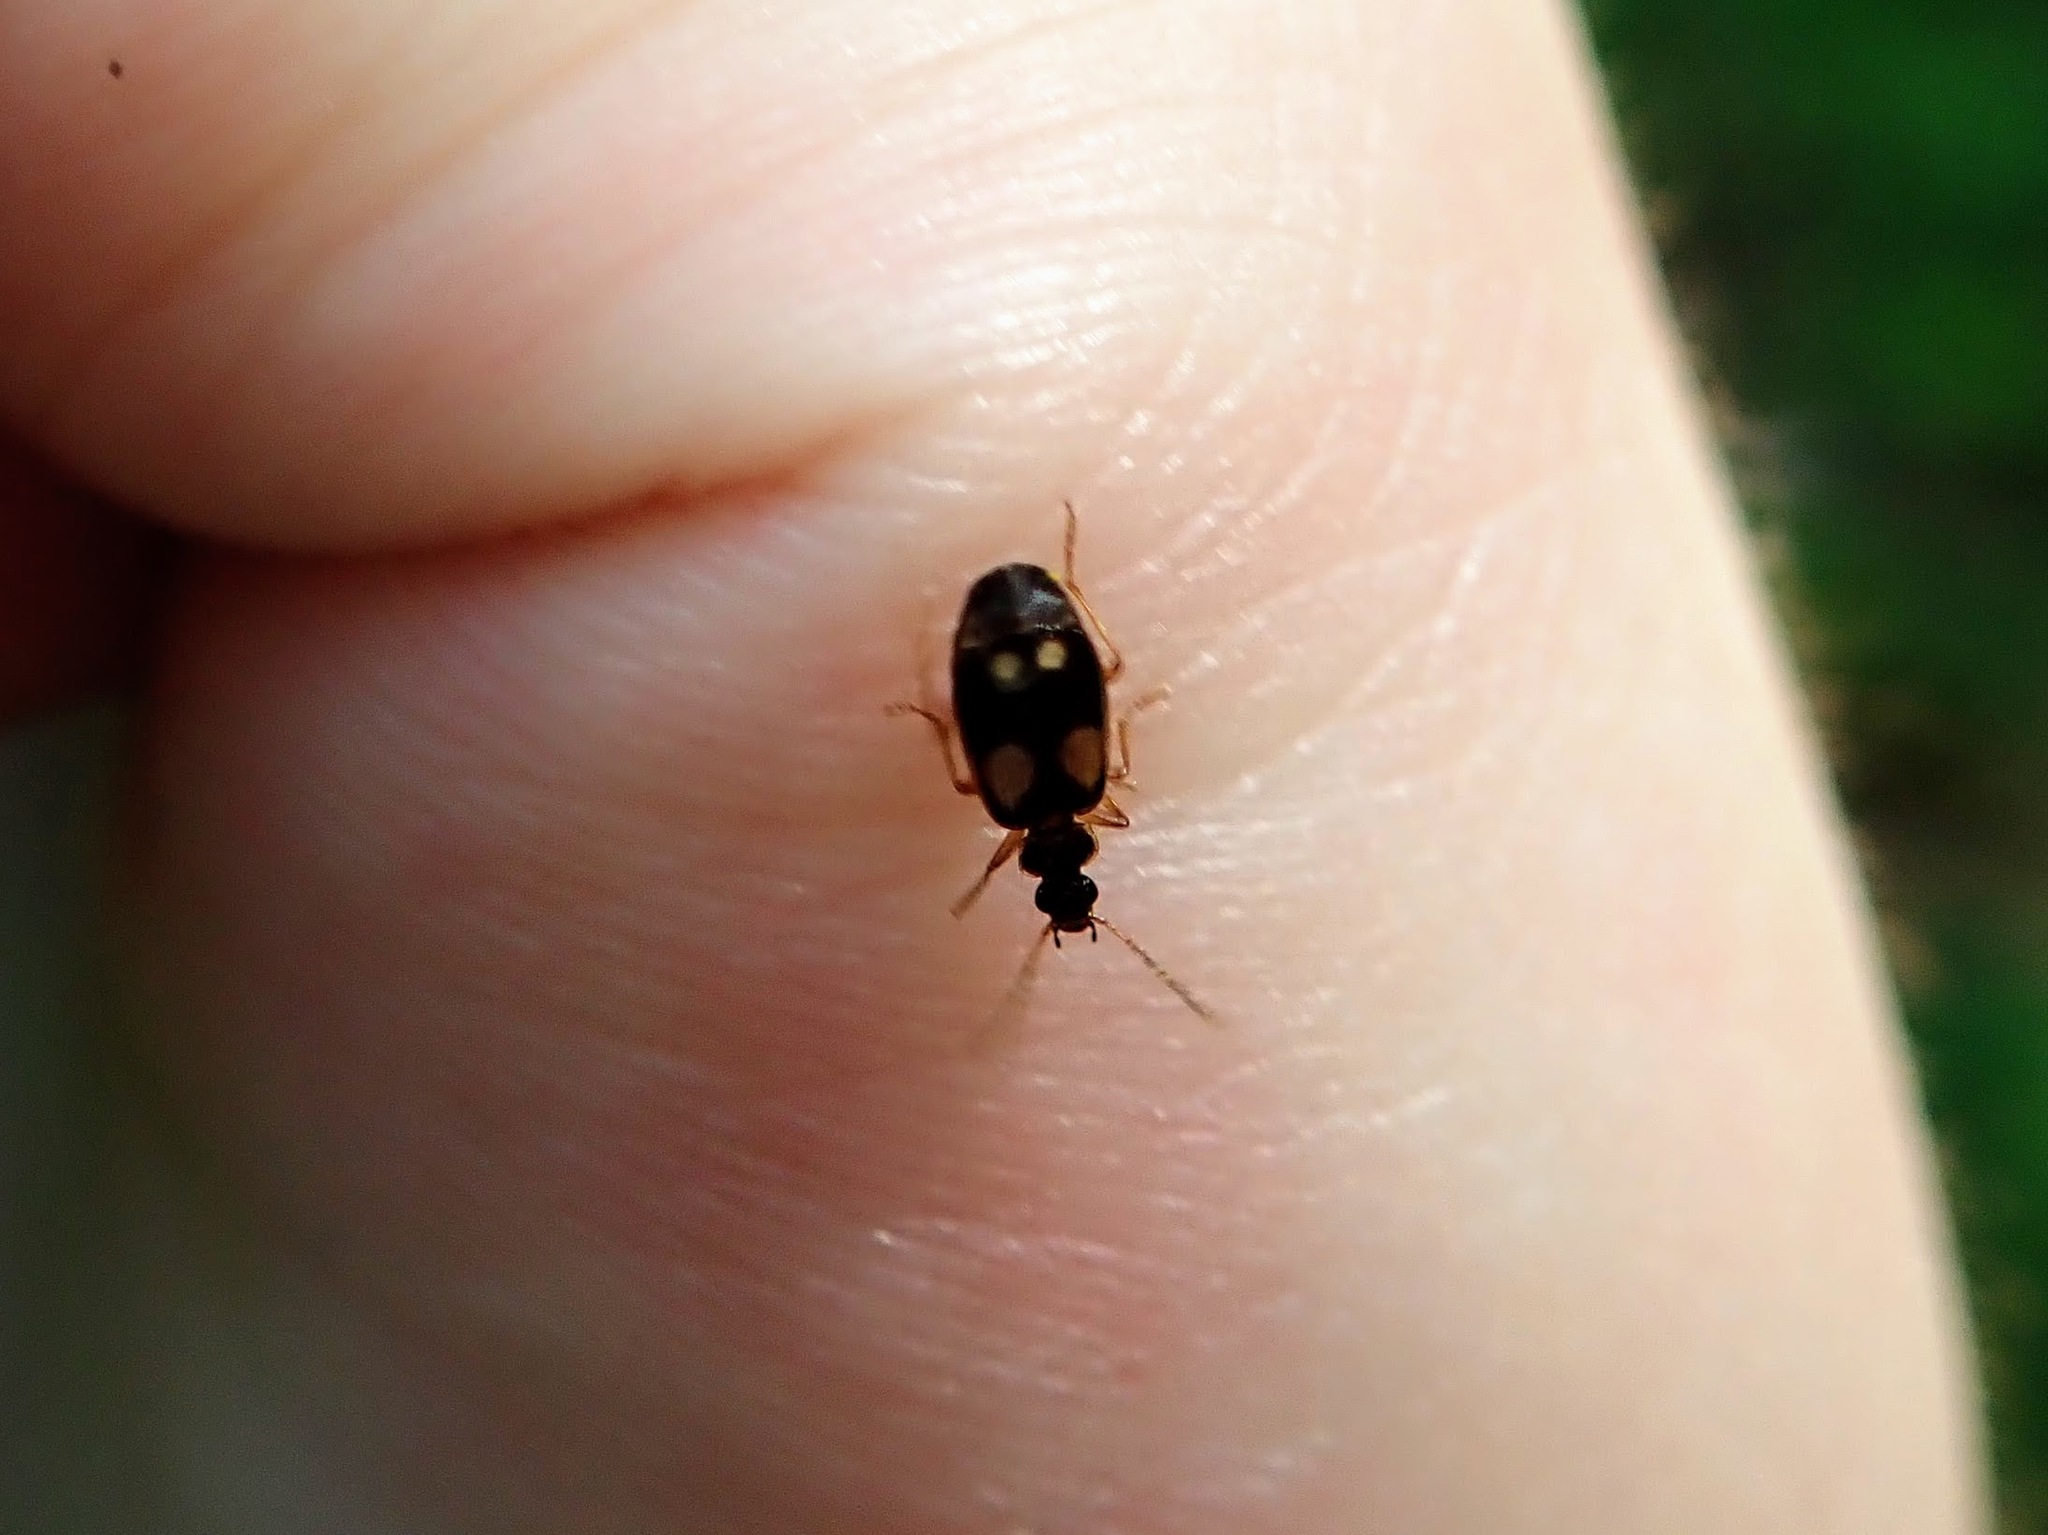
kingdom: Animalia
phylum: Arthropoda
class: Insecta
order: Coleoptera
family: Carabidae
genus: Lebia
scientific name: Lebia ornata
